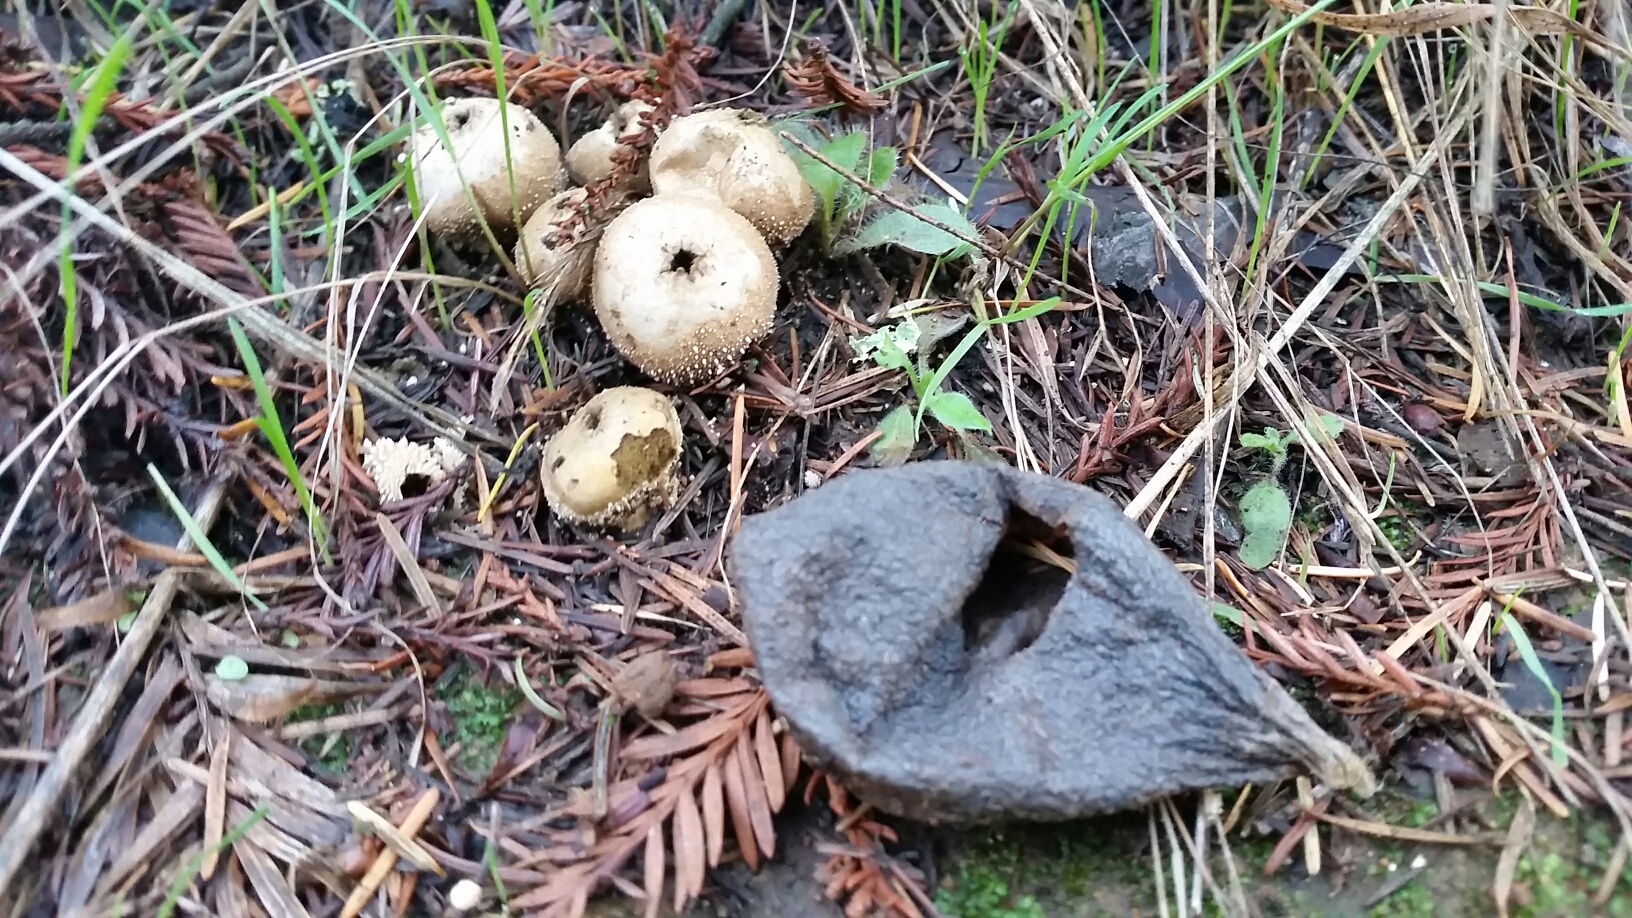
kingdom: Fungi
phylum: Basidiomycota
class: Agaricomycetes
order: Agaricales
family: Lycoperdaceae
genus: Lycoperdon
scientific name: Lycoperdon perlatum
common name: Common puffball
